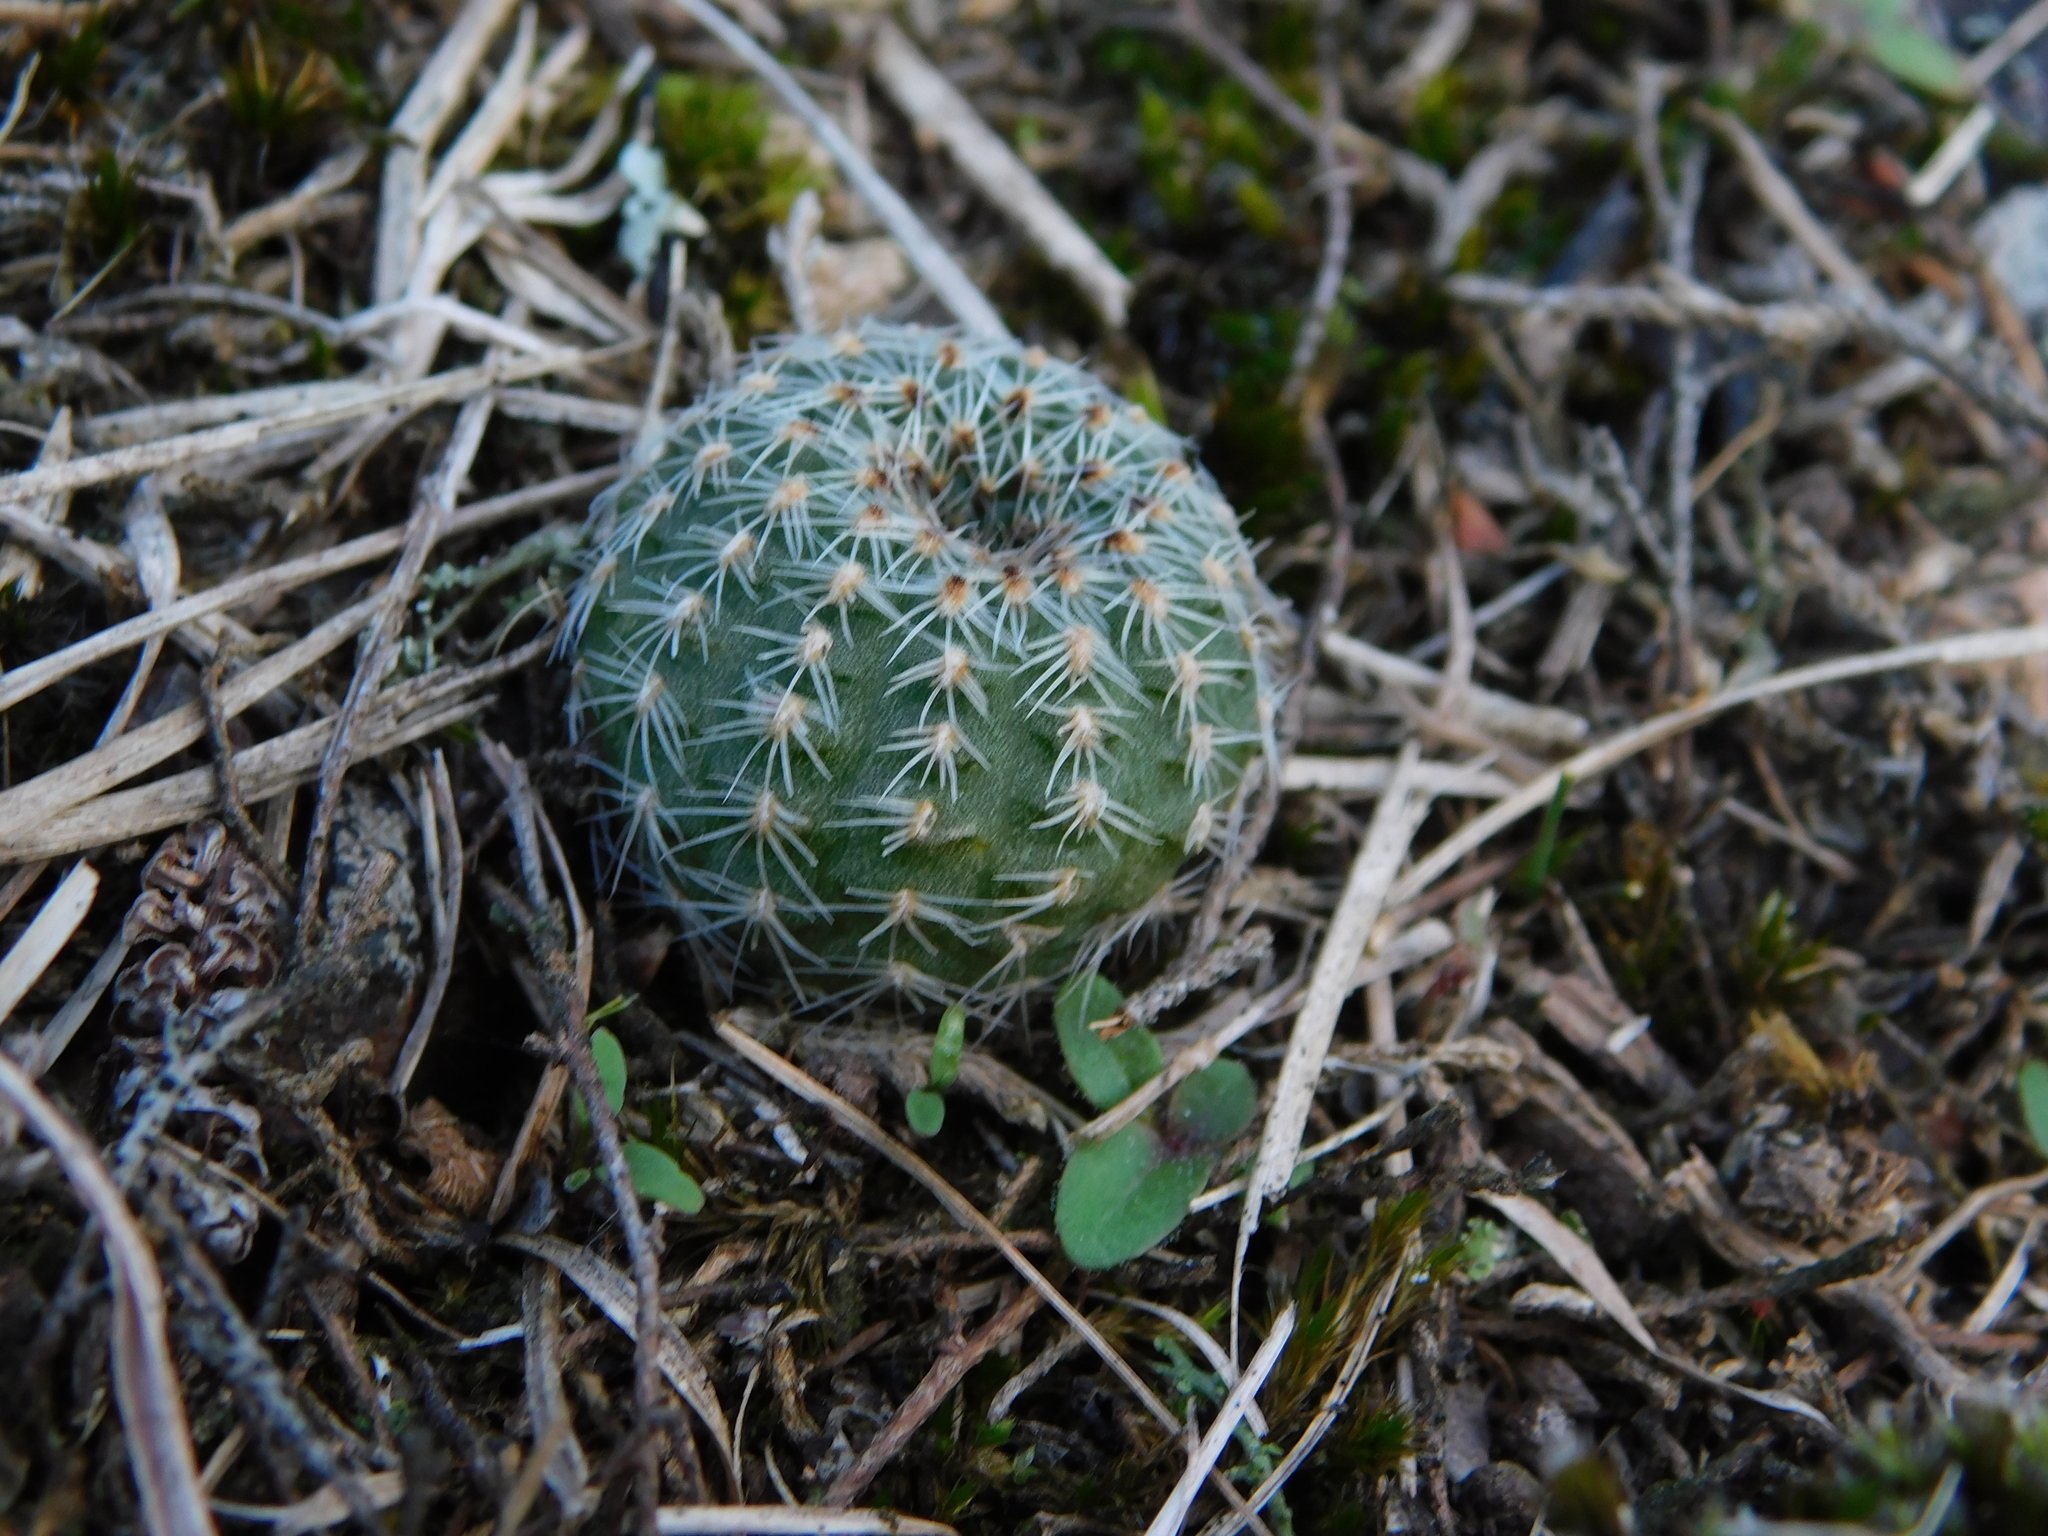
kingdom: Plantae
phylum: Tracheophyta
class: Magnoliopsida
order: Caryophyllales
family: Cactaceae
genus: Frailea
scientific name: Frailea pygmaea
